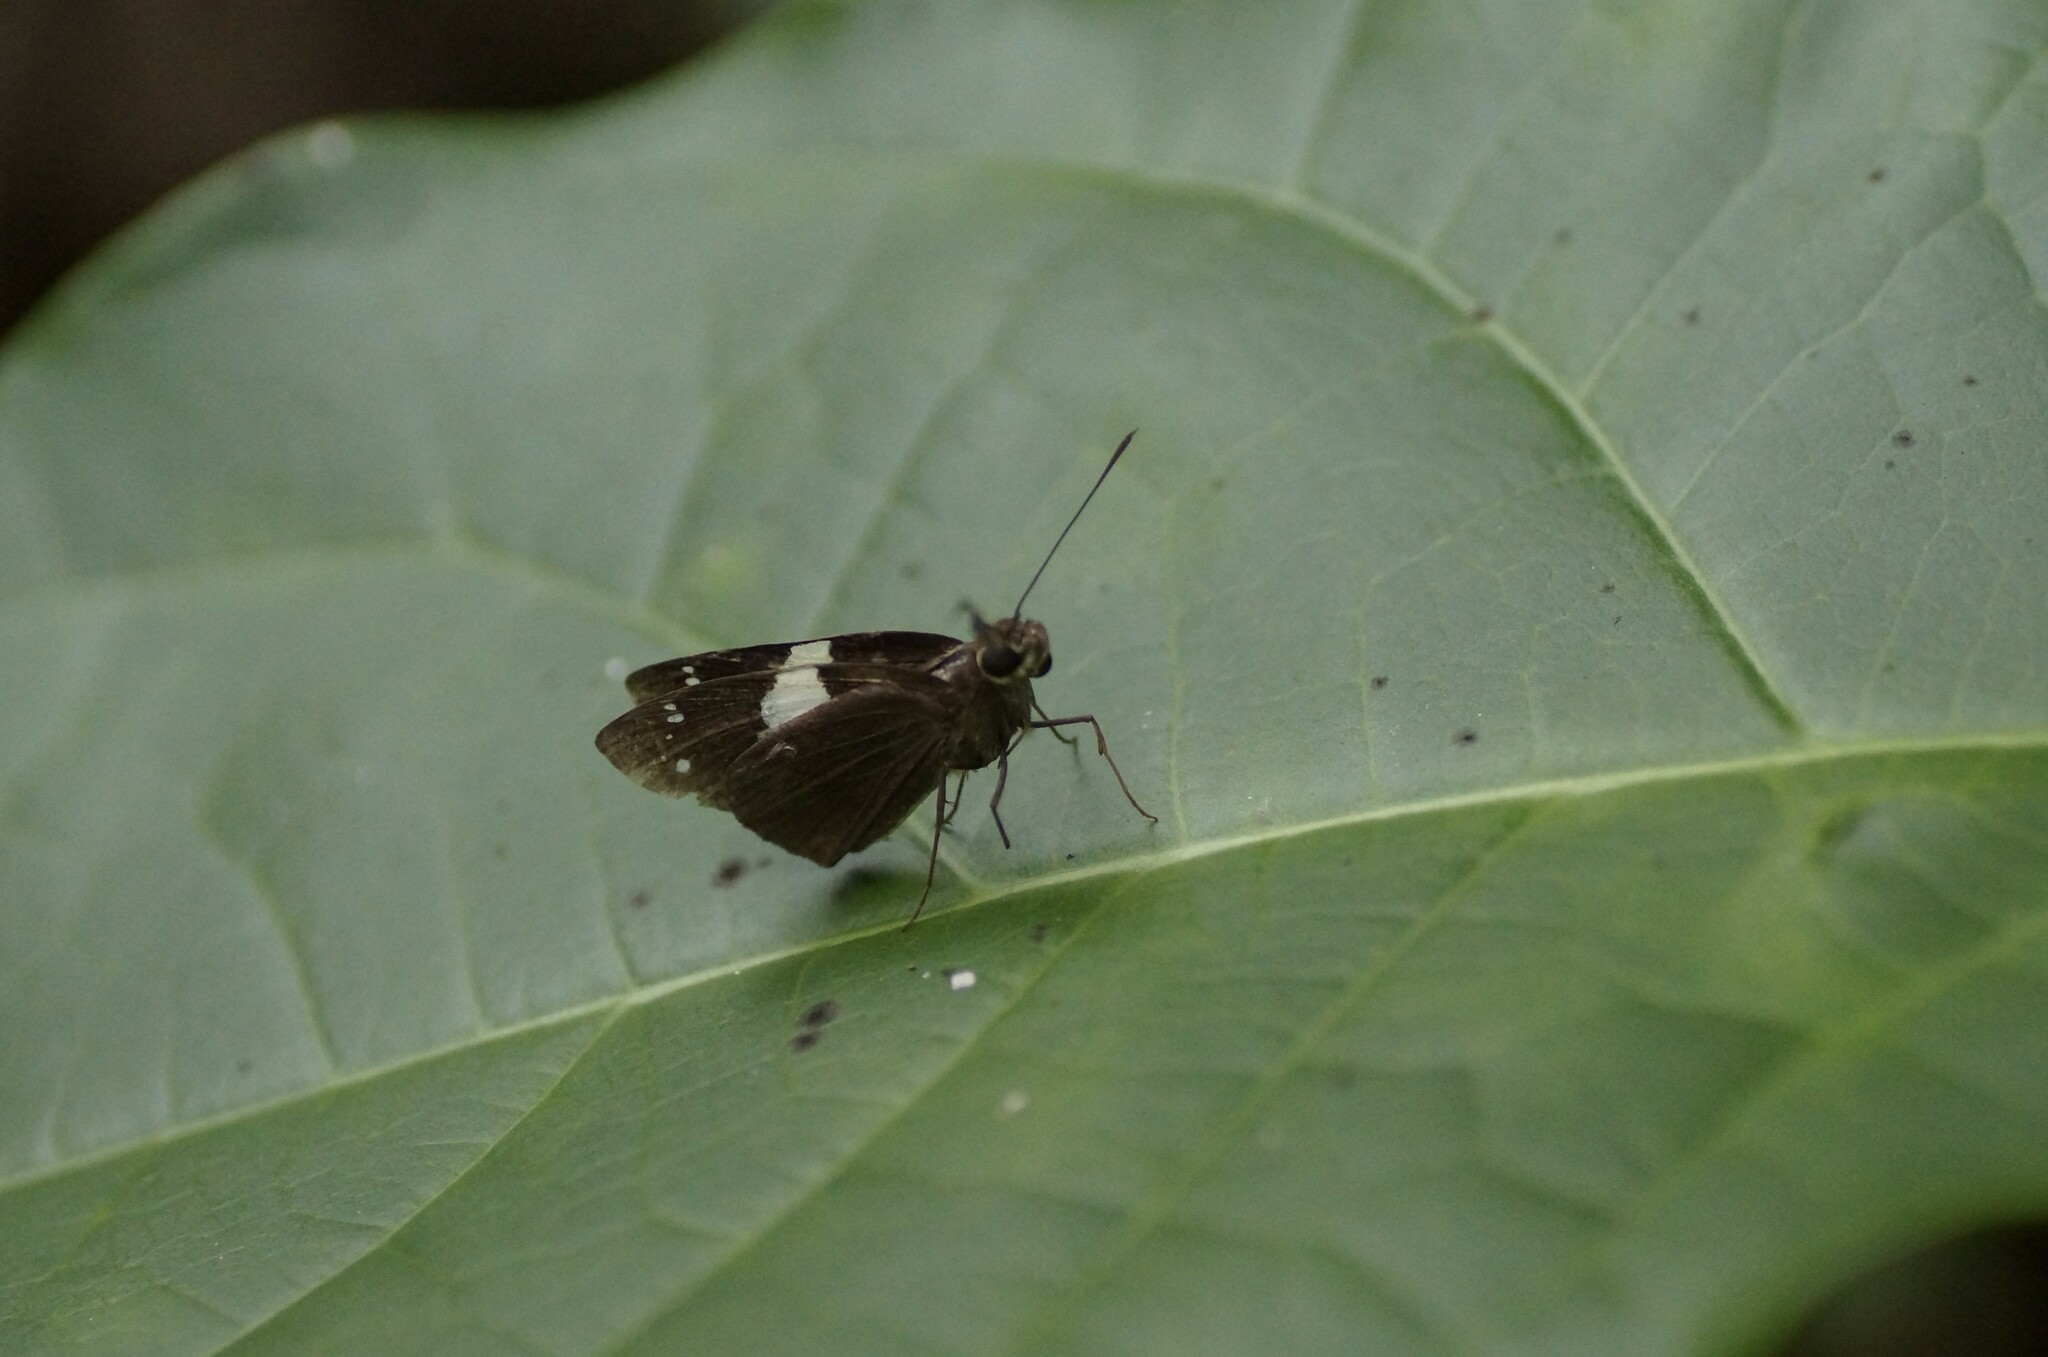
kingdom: Animalia
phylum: Arthropoda
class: Insecta
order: Lepidoptera
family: Hesperiidae
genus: Notocrypta
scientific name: Notocrypta waigensis
